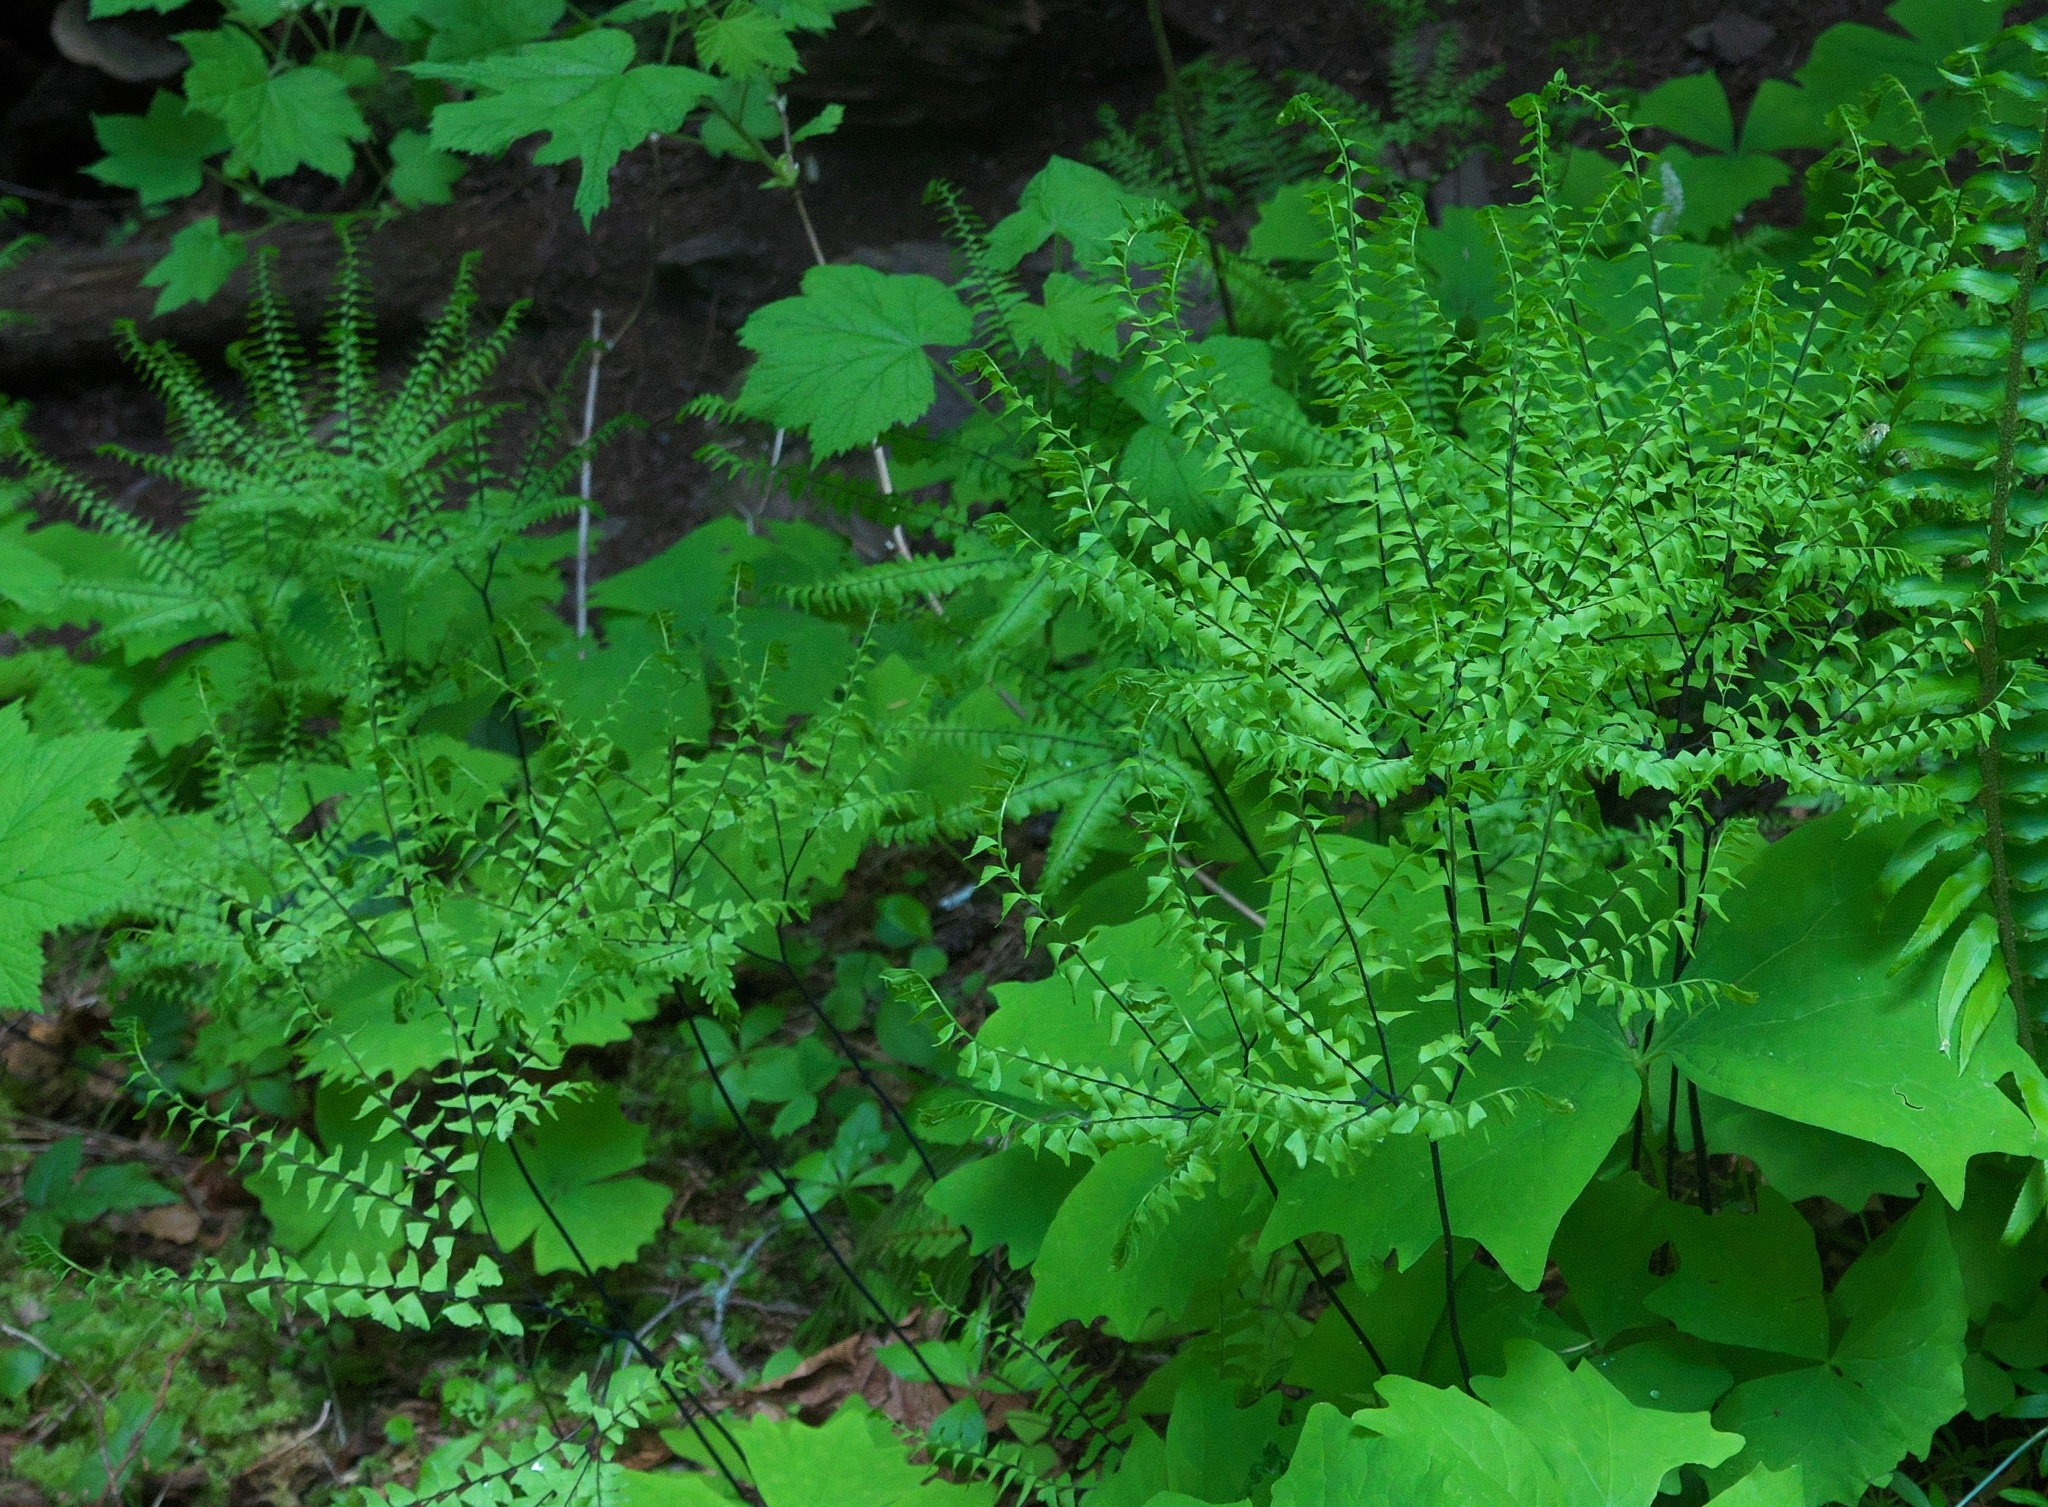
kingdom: Plantae
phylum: Tracheophyta
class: Polypodiopsida
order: Polypodiales
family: Pteridaceae
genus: Adiantum
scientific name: Adiantum aleuticum
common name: Aleutian maidenhair fern
